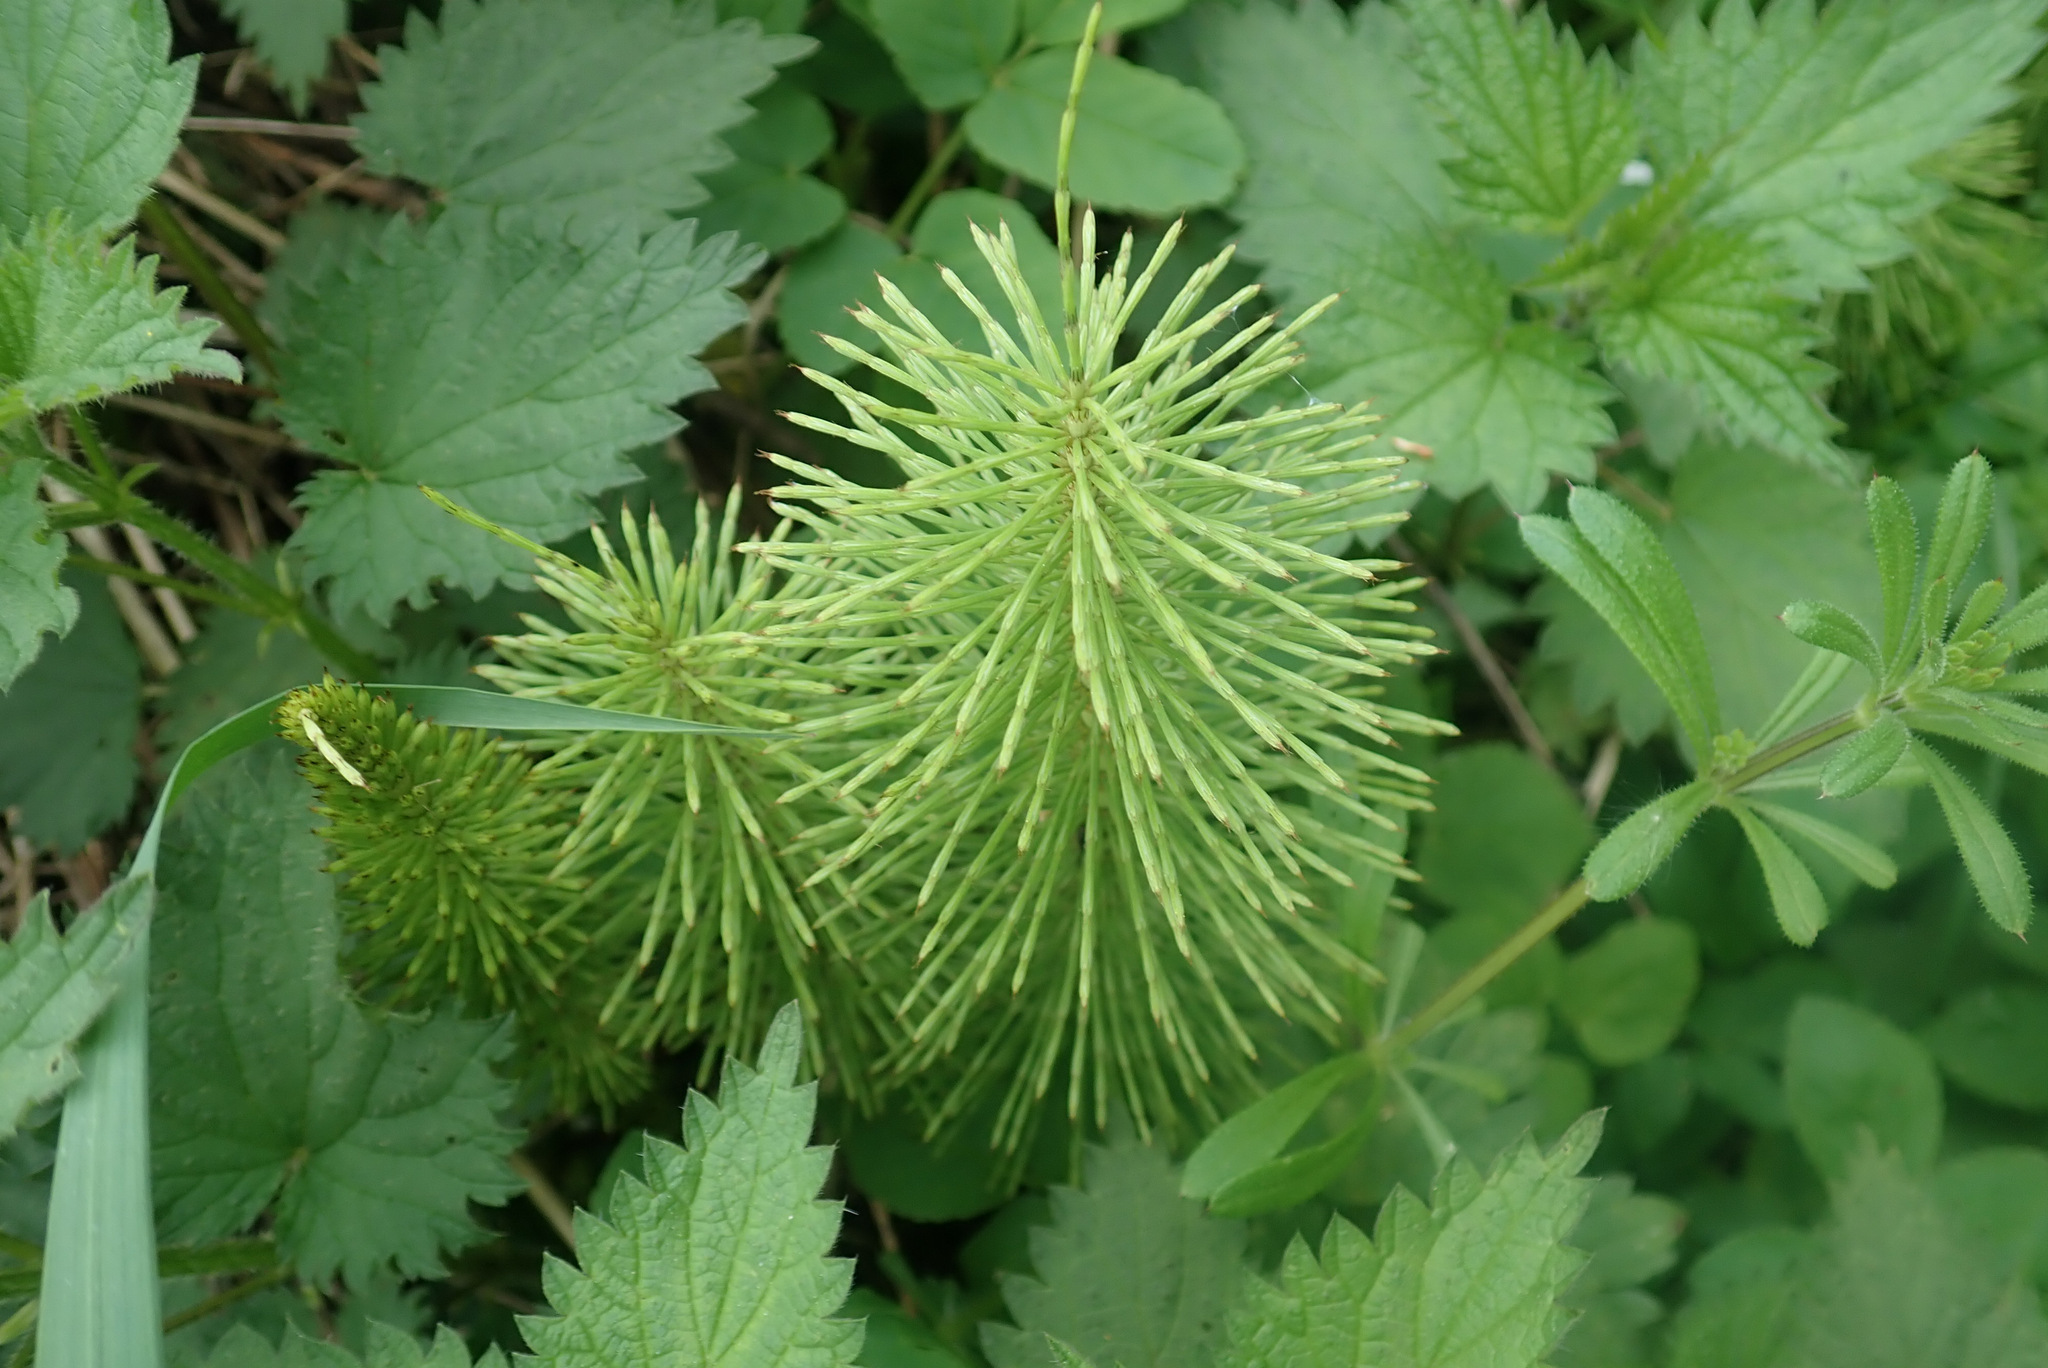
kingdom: Plantae
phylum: Tracheophyta
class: Polypodiopsida
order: Equisetales
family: Equisetaceae
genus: Equisetum
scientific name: Equisetum telmateia
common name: Great horsetail
